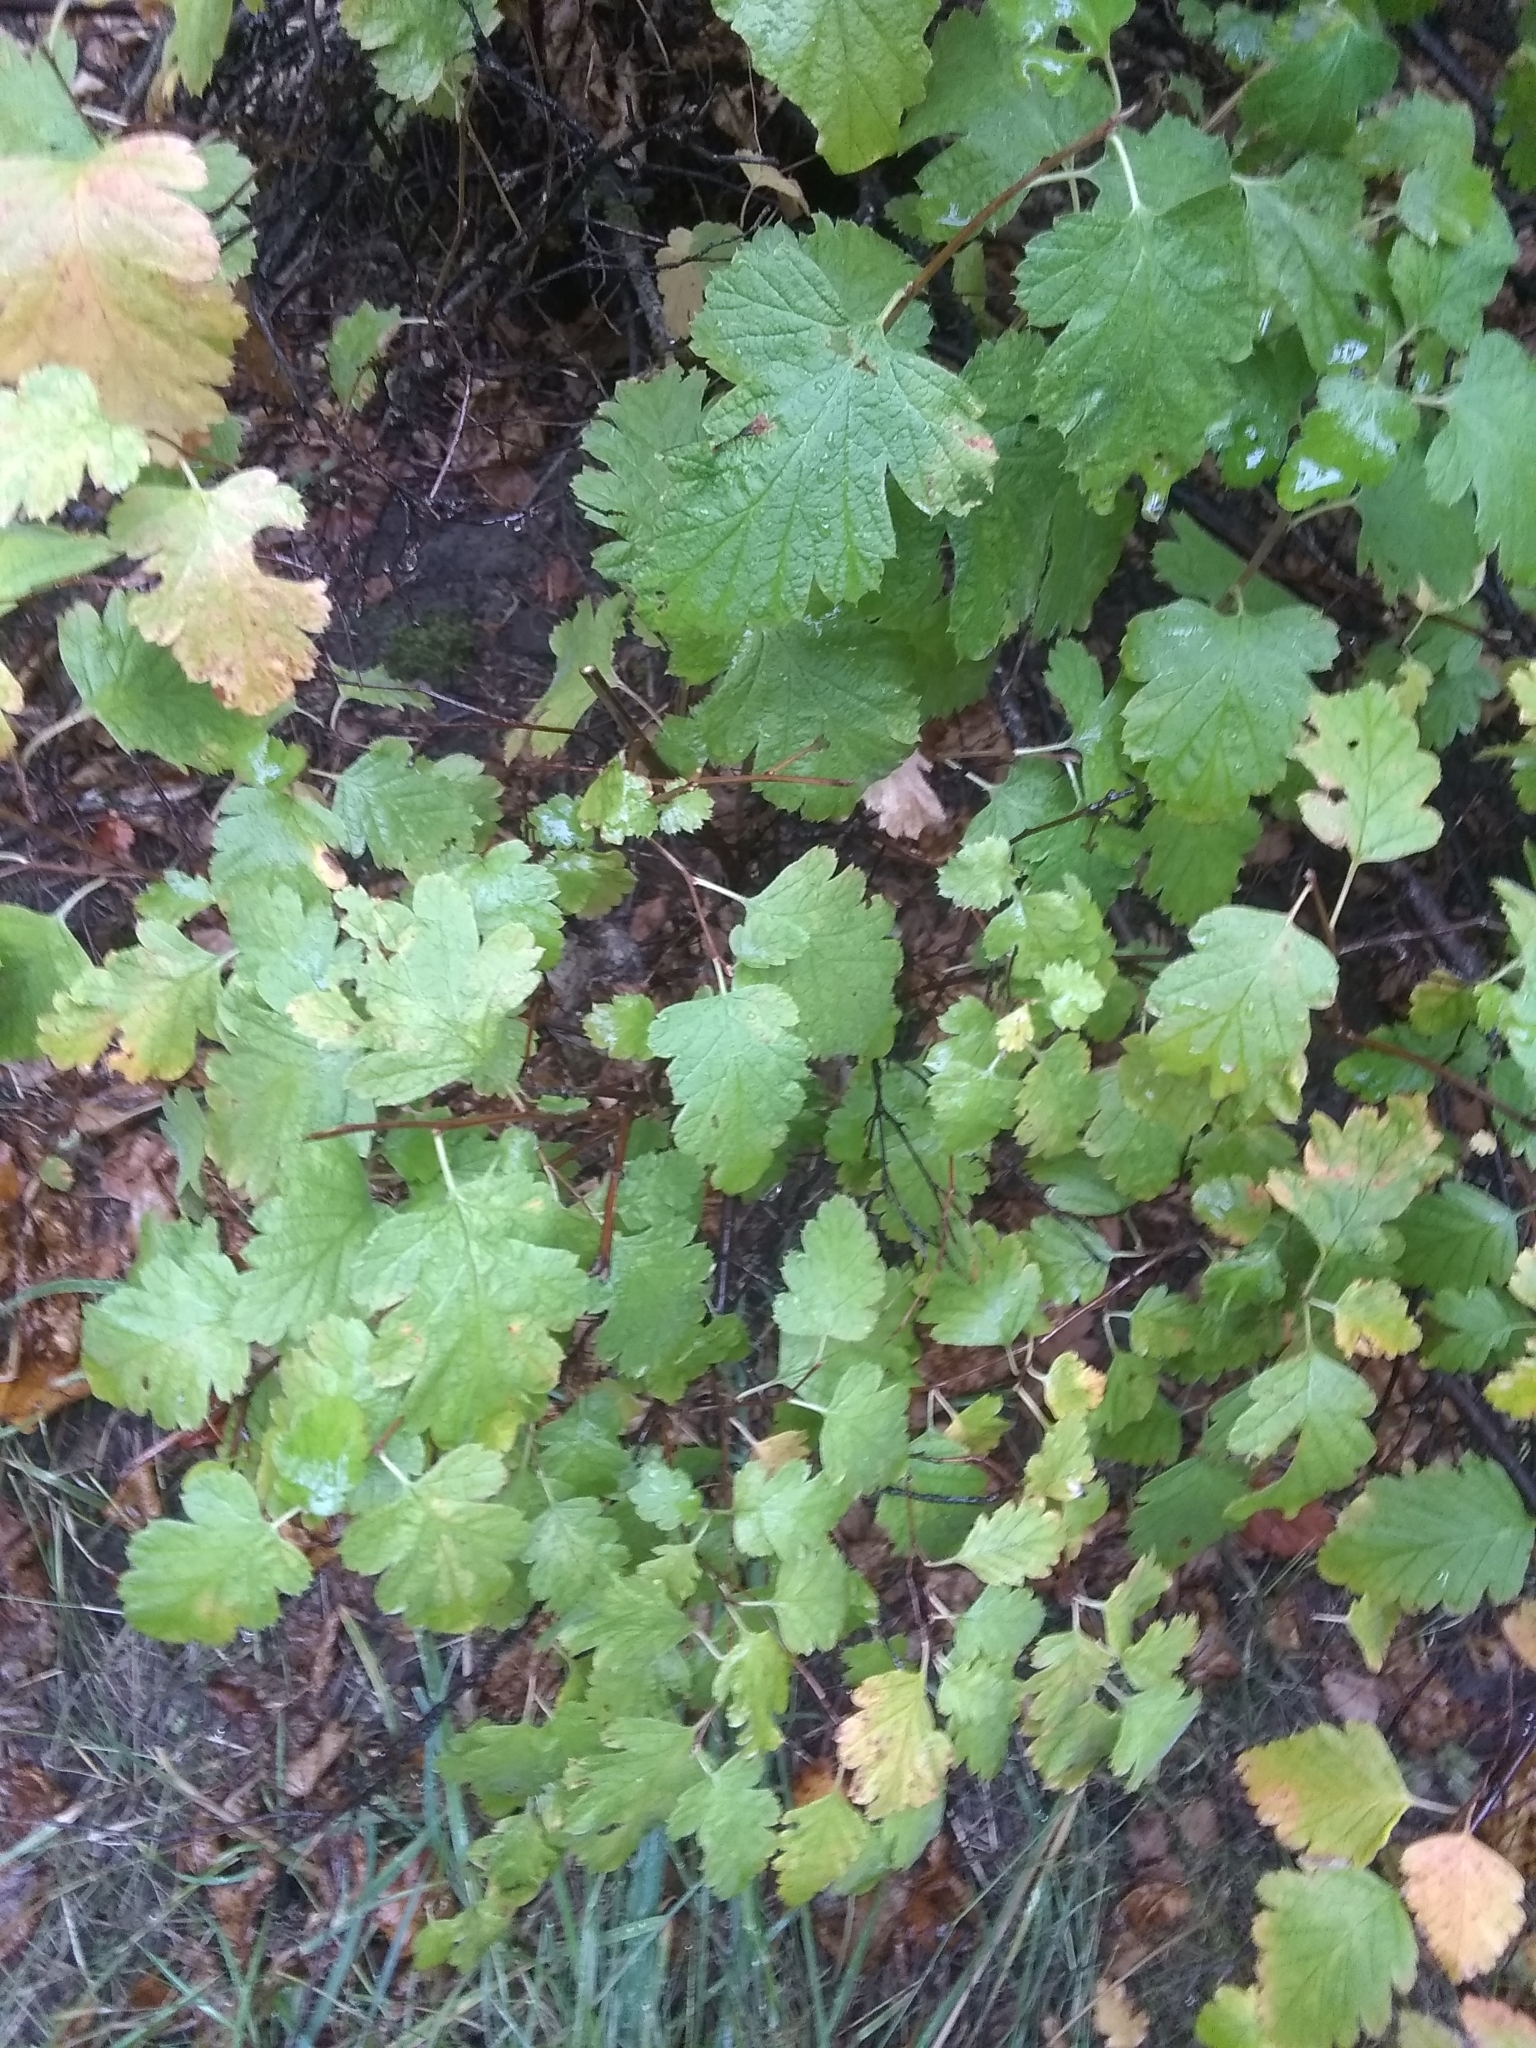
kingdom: Plantae
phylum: Tracheophyta
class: Magnoliopsida
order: Rosales
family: Rosaceae
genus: Holodiscus
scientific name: Holodiscus discolor
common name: Oceanspray
